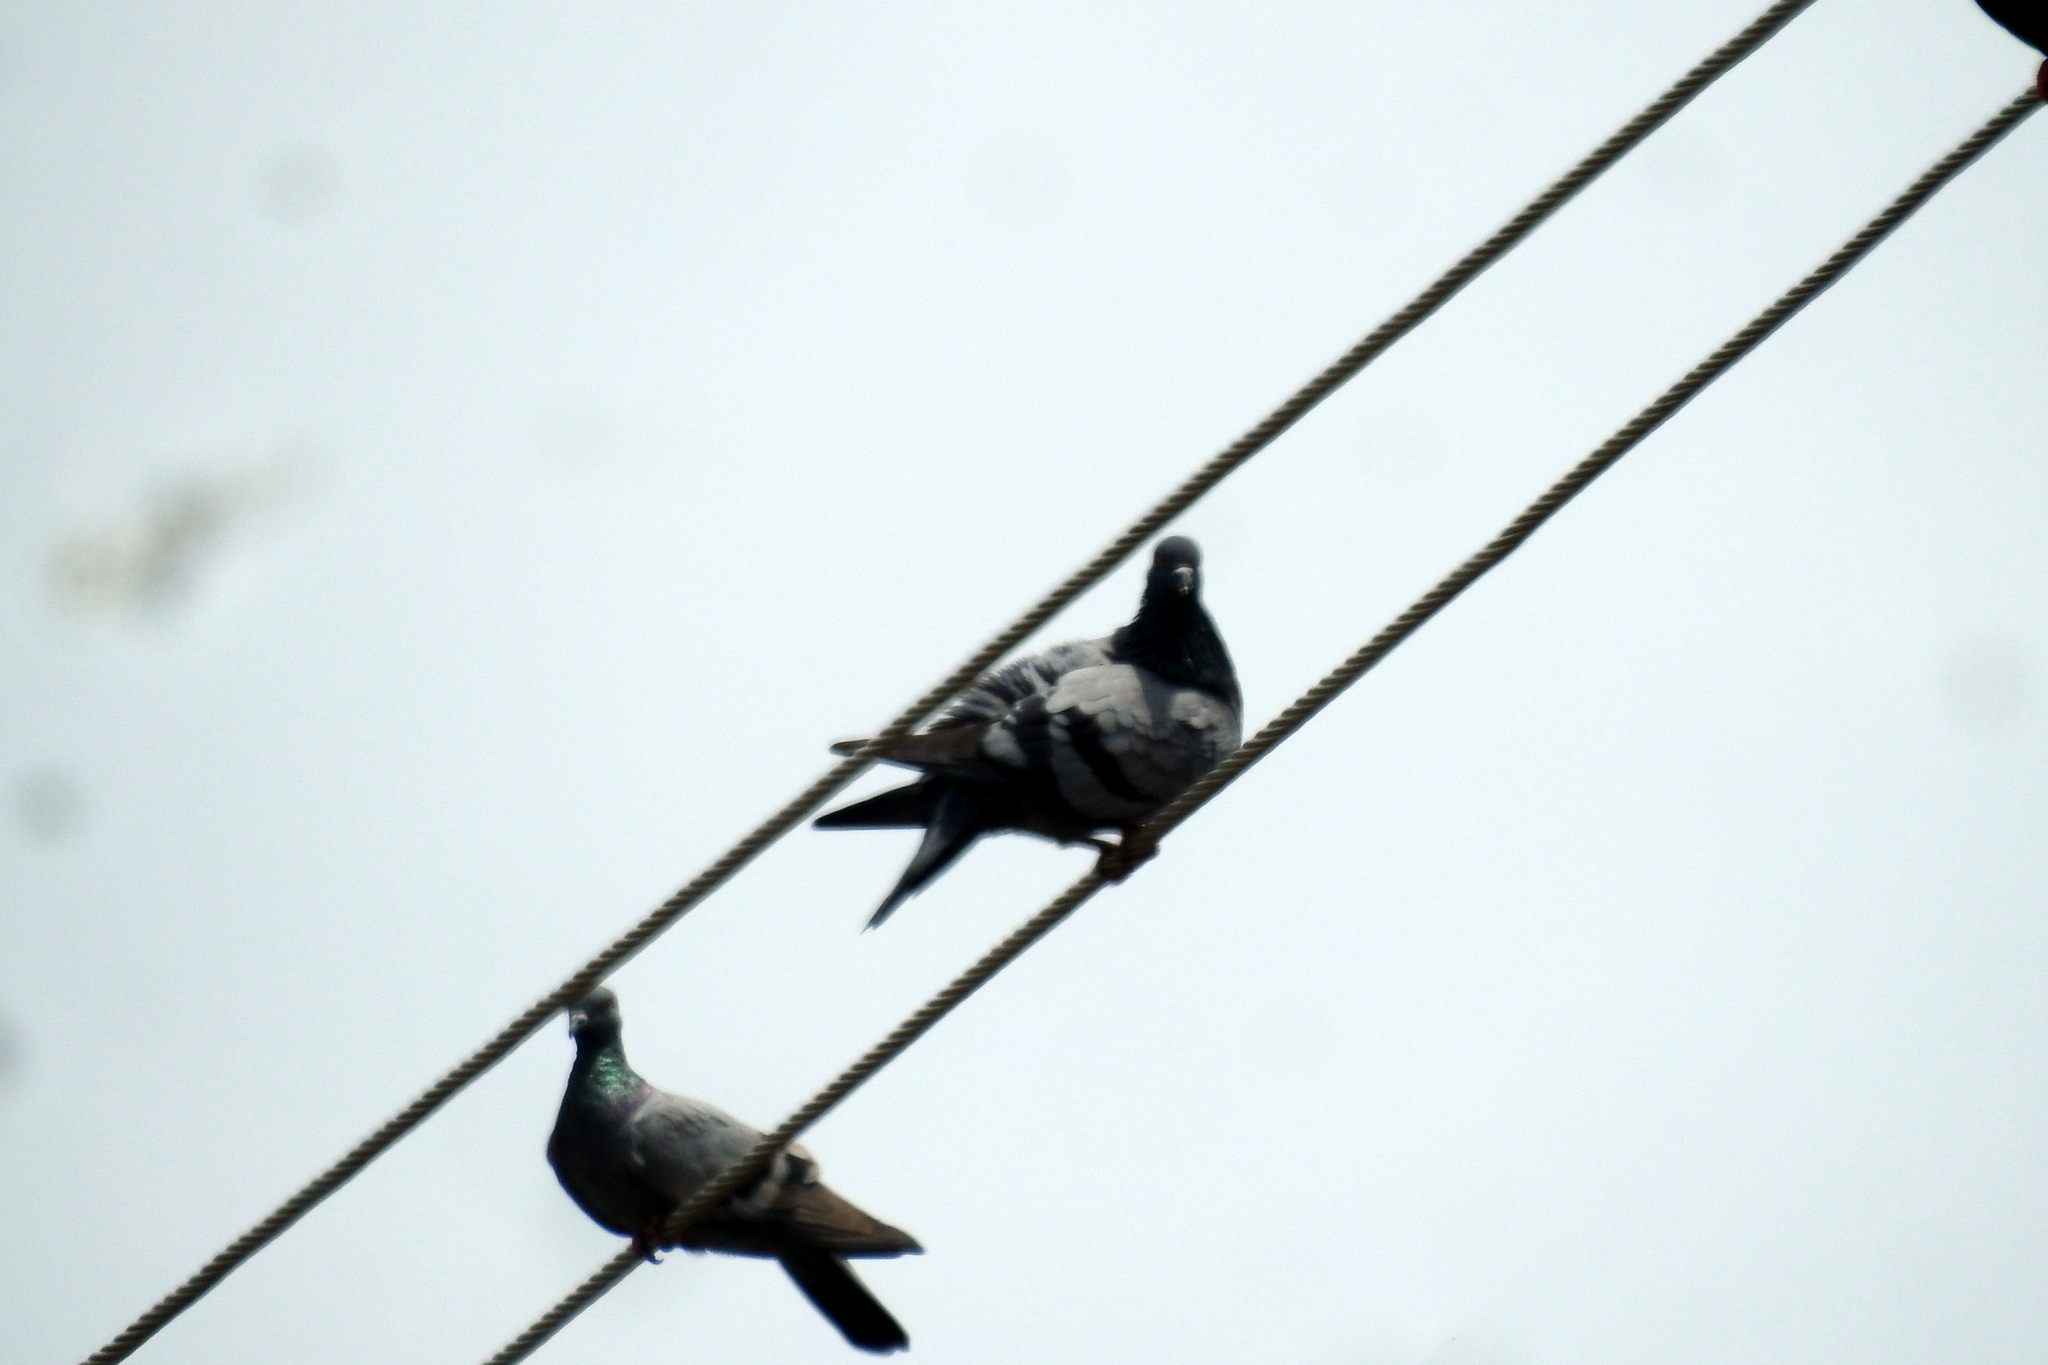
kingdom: Animalia
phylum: Chordata
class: Aves
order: Columbiformes
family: Columbidae
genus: Columba
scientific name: Columba livia
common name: Rock pigeon
